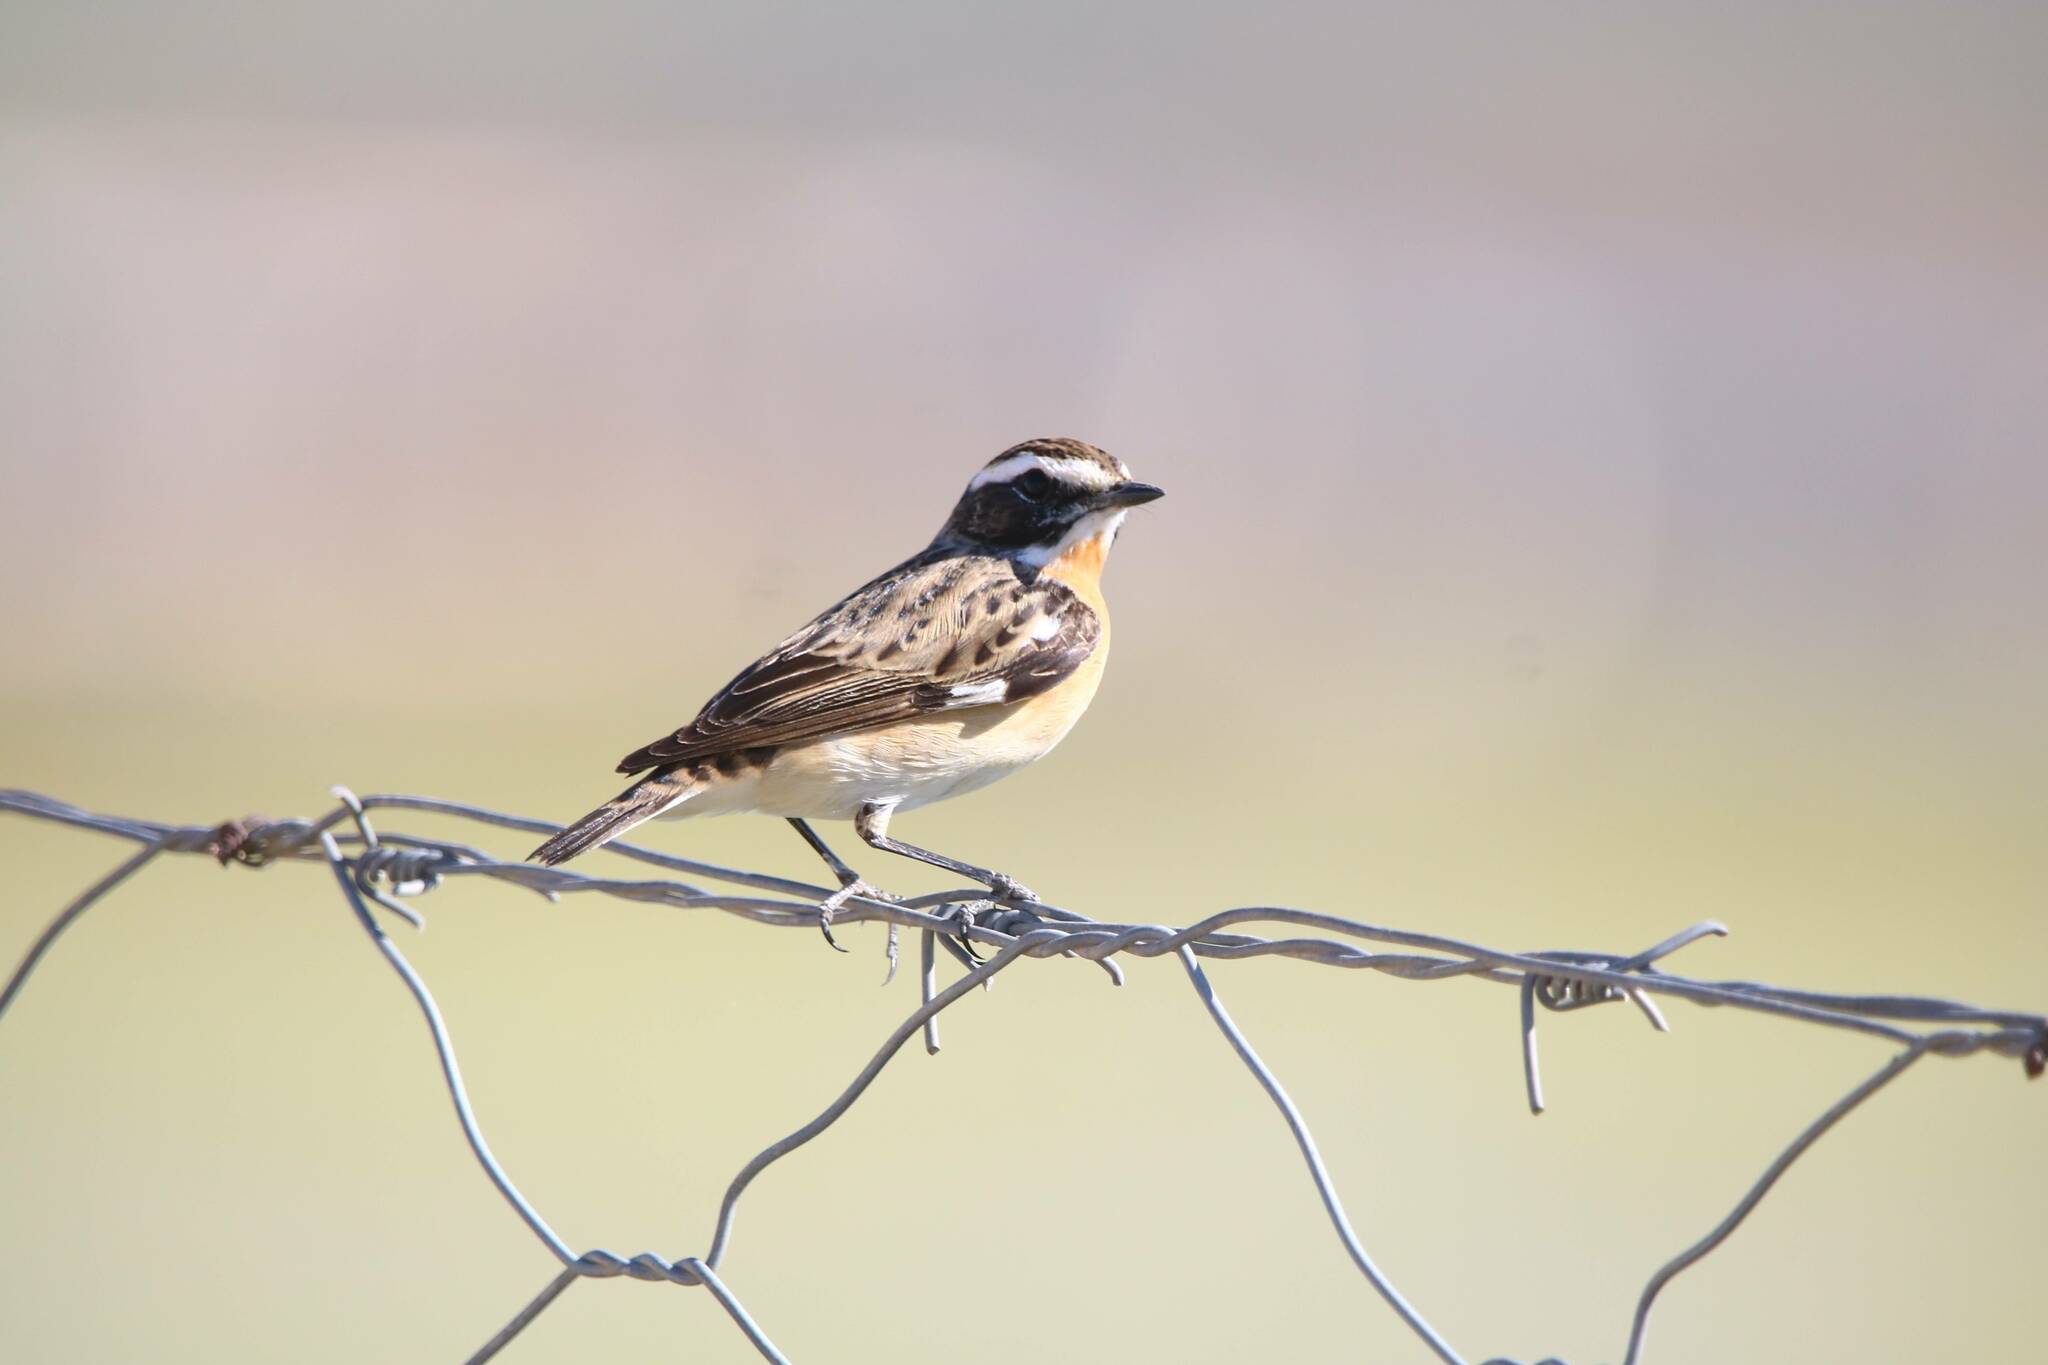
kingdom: Animalia
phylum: Chordata
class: Aves
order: Passeriformes
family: Muscicapidae
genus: Saxicola
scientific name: Saxicola rubetra
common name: Whinchat
